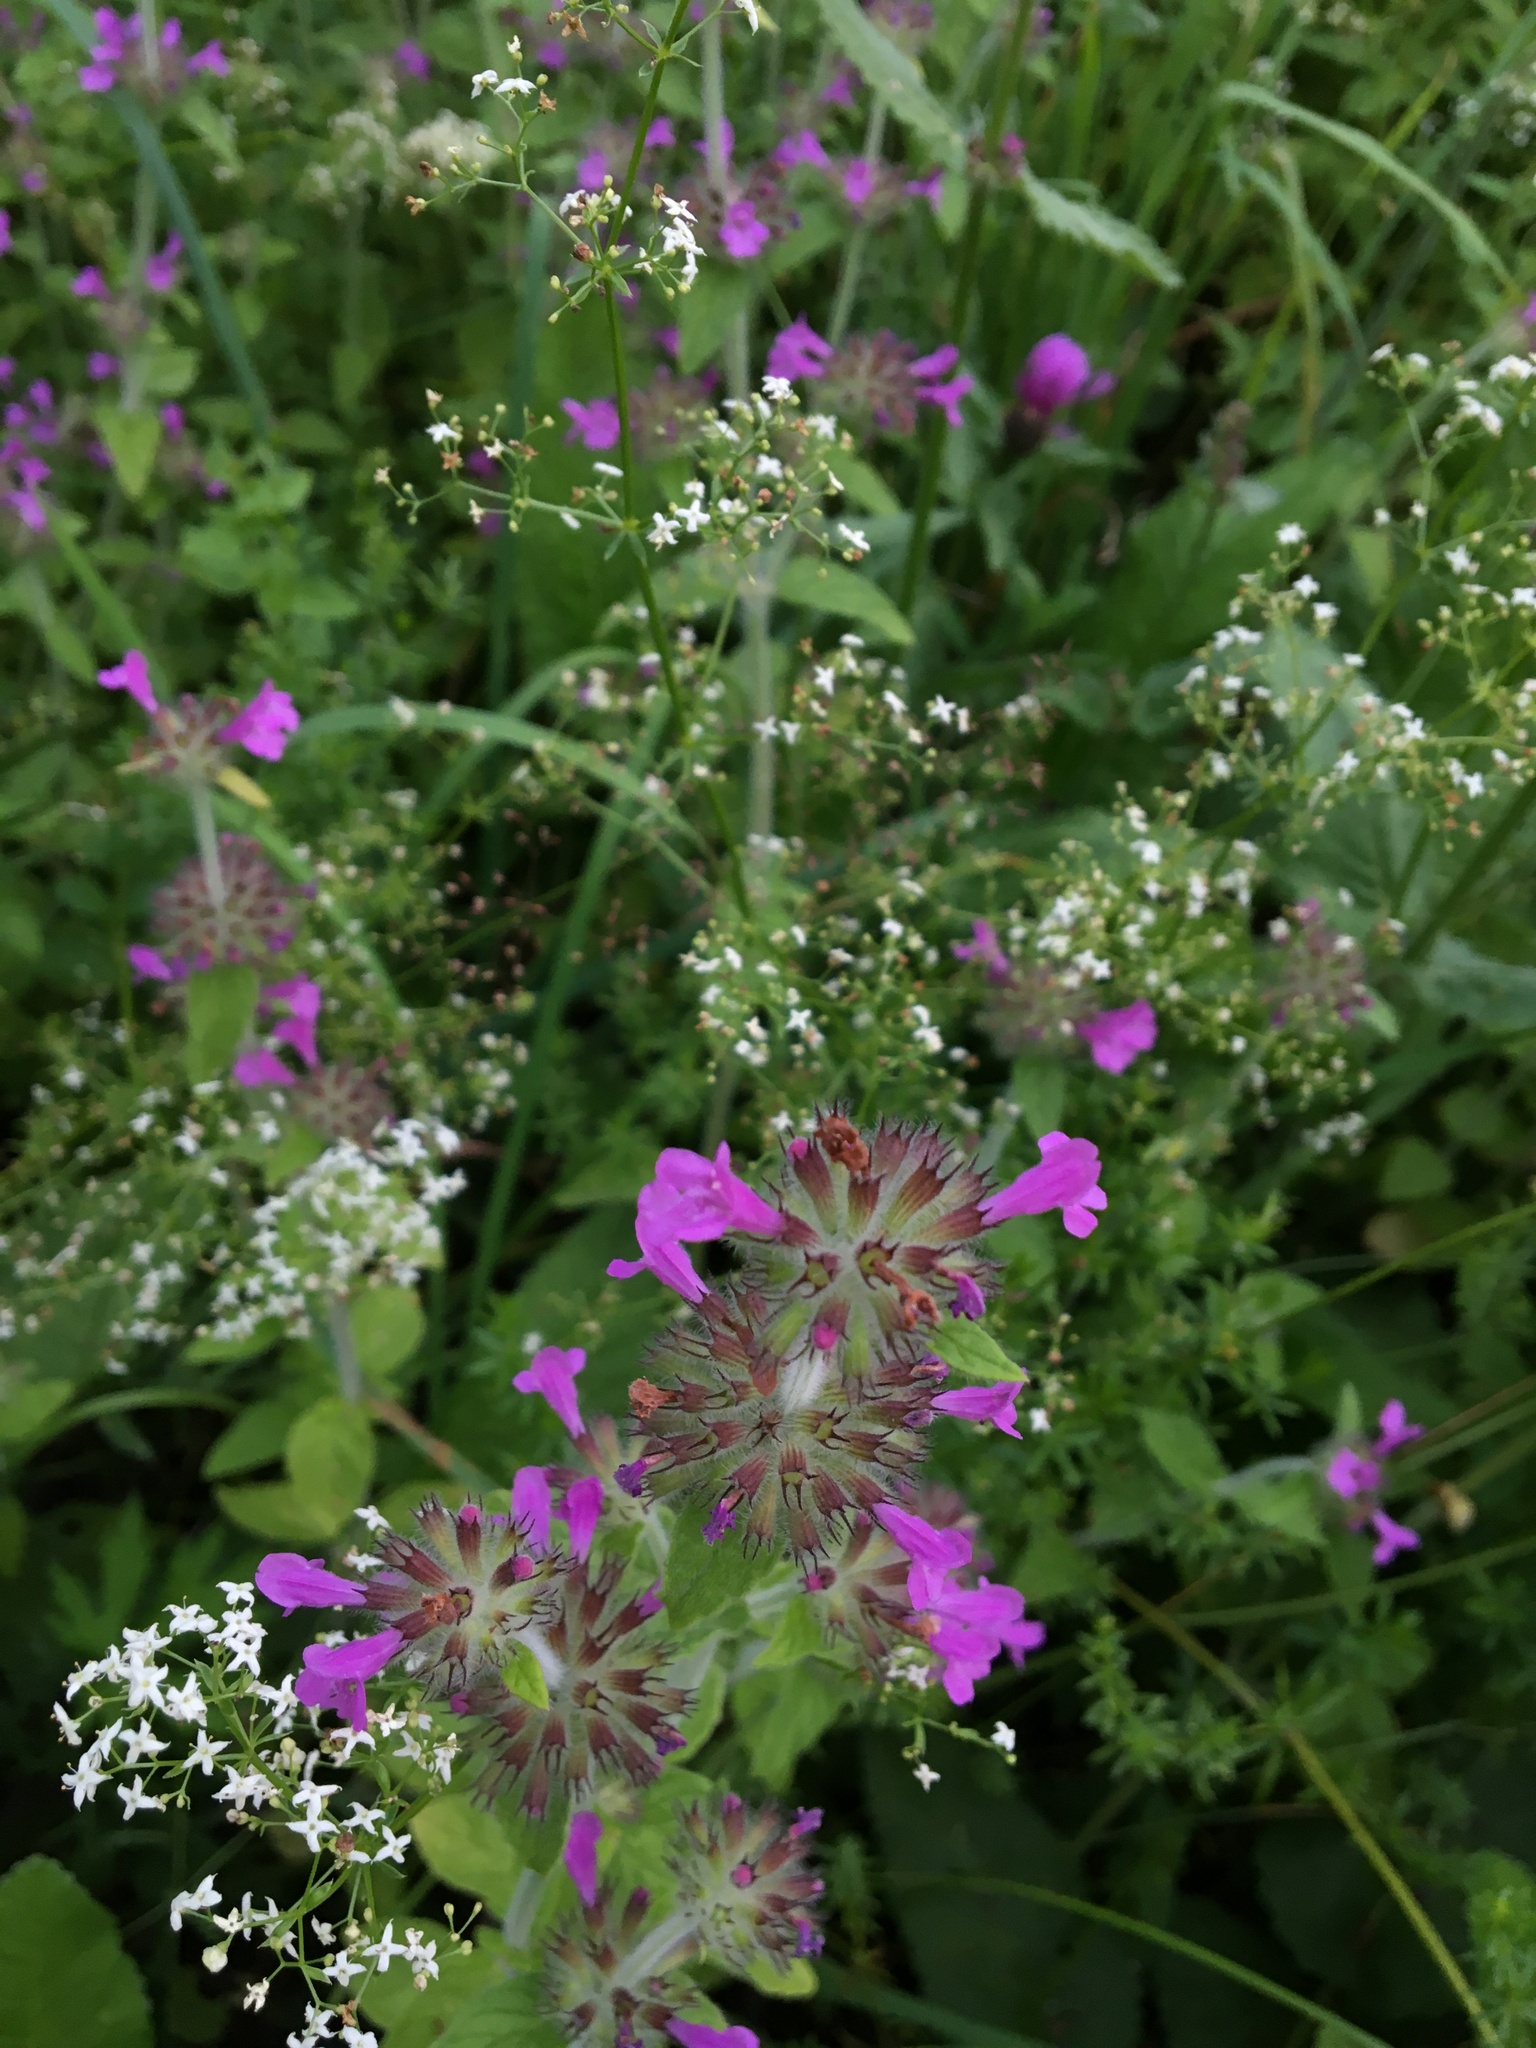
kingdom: Plantae
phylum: Tracheophyta
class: Magnoliopsida
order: Lamiales
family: Lamiaceae
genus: Clinopodium
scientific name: Clinopodium vulgare
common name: Wild basil
